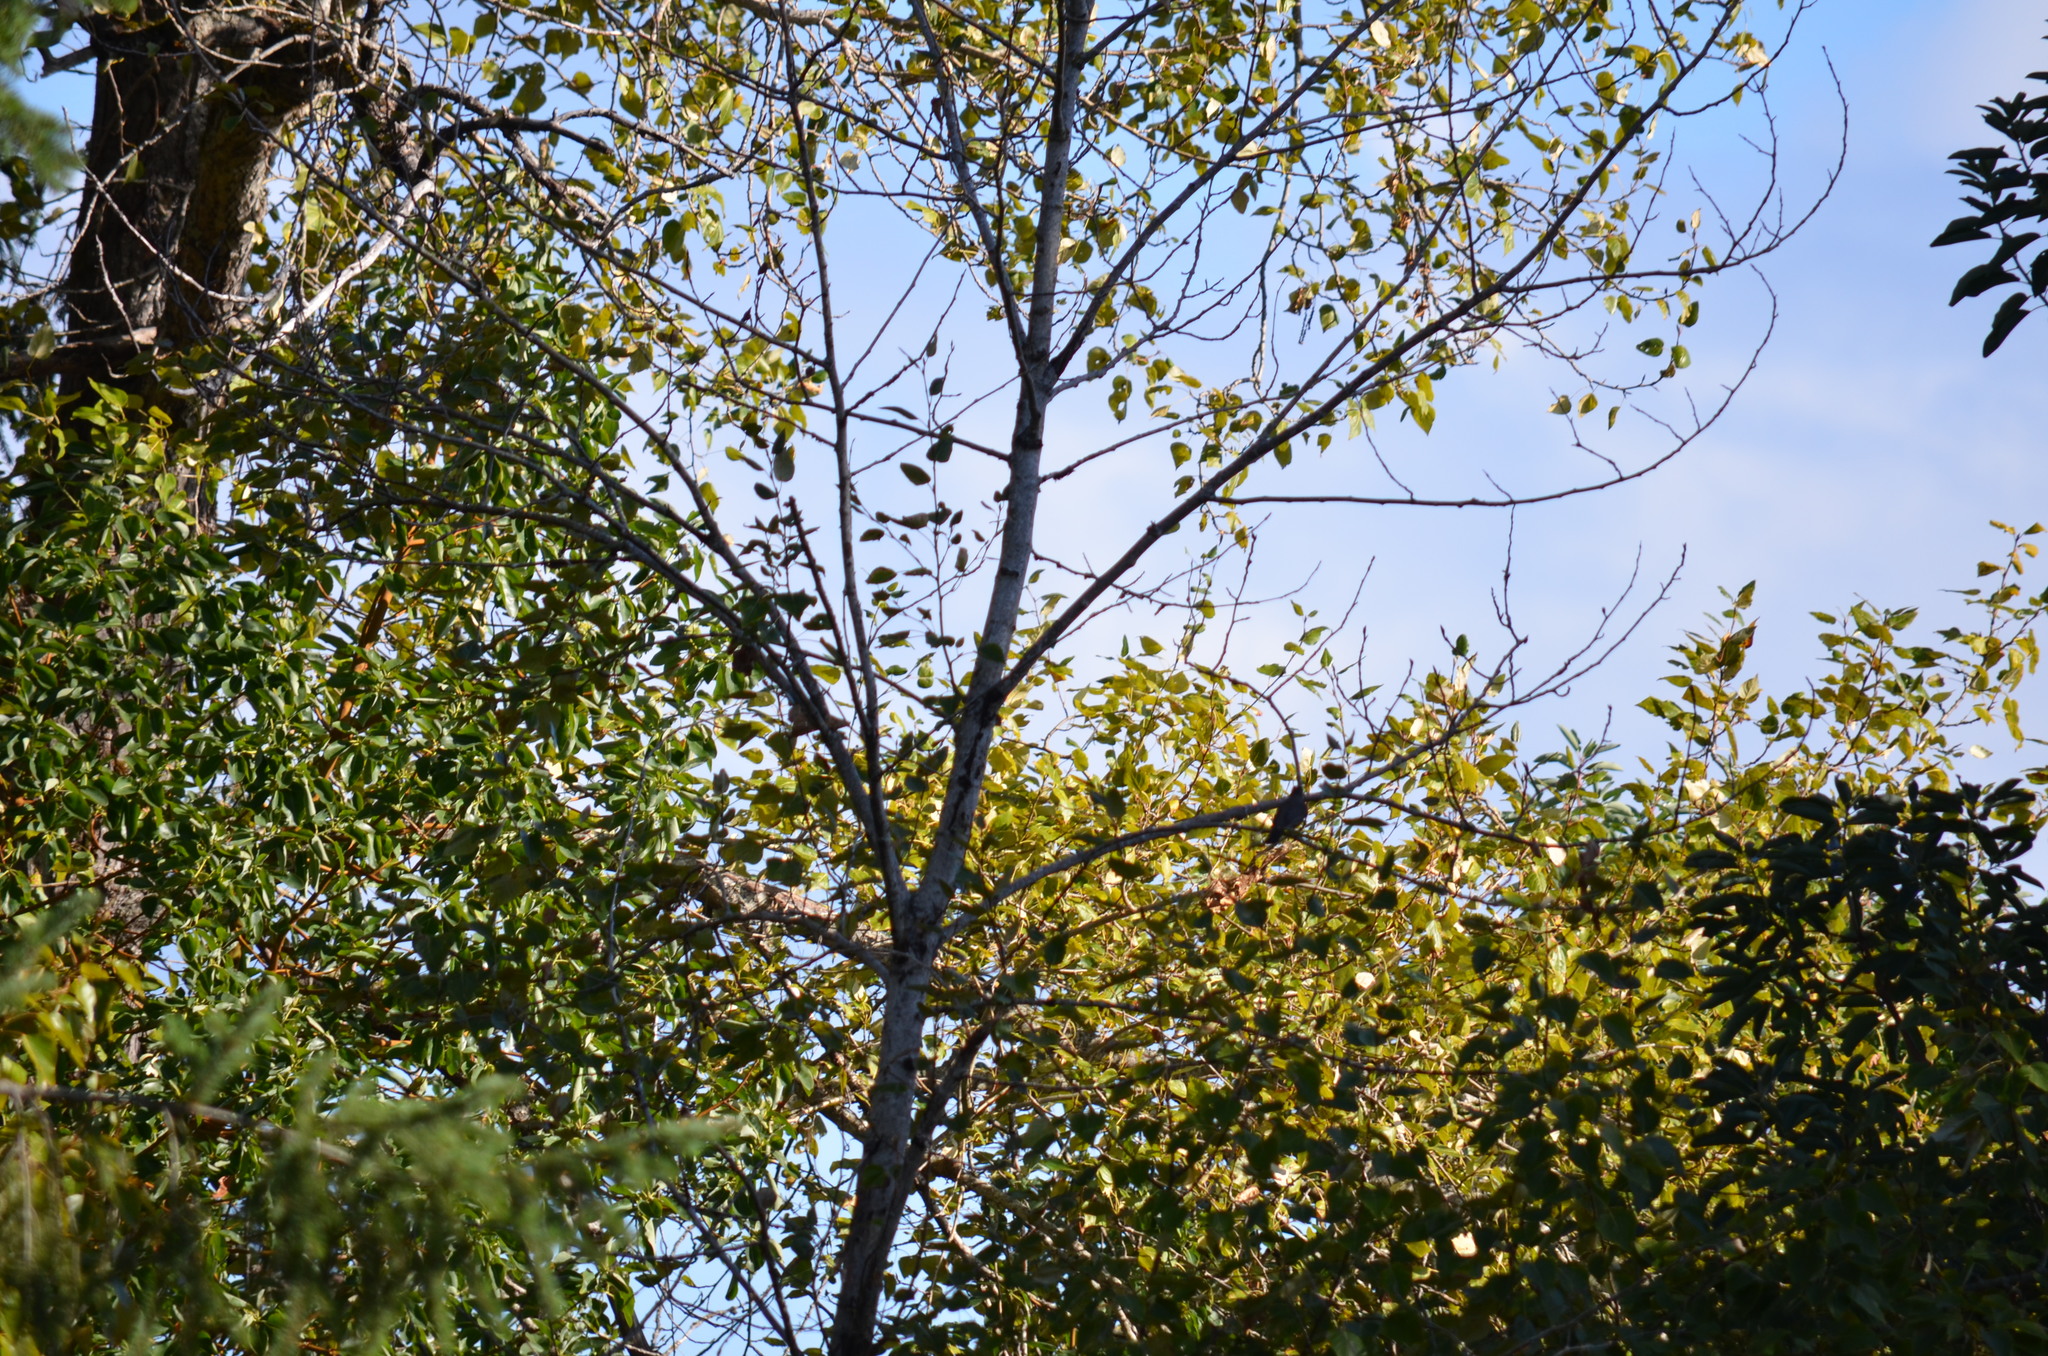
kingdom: Animalia
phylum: Chordata
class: Aves
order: Passeriformes
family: Turdidae
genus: Turdus
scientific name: Turdus migratorius
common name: American robin
